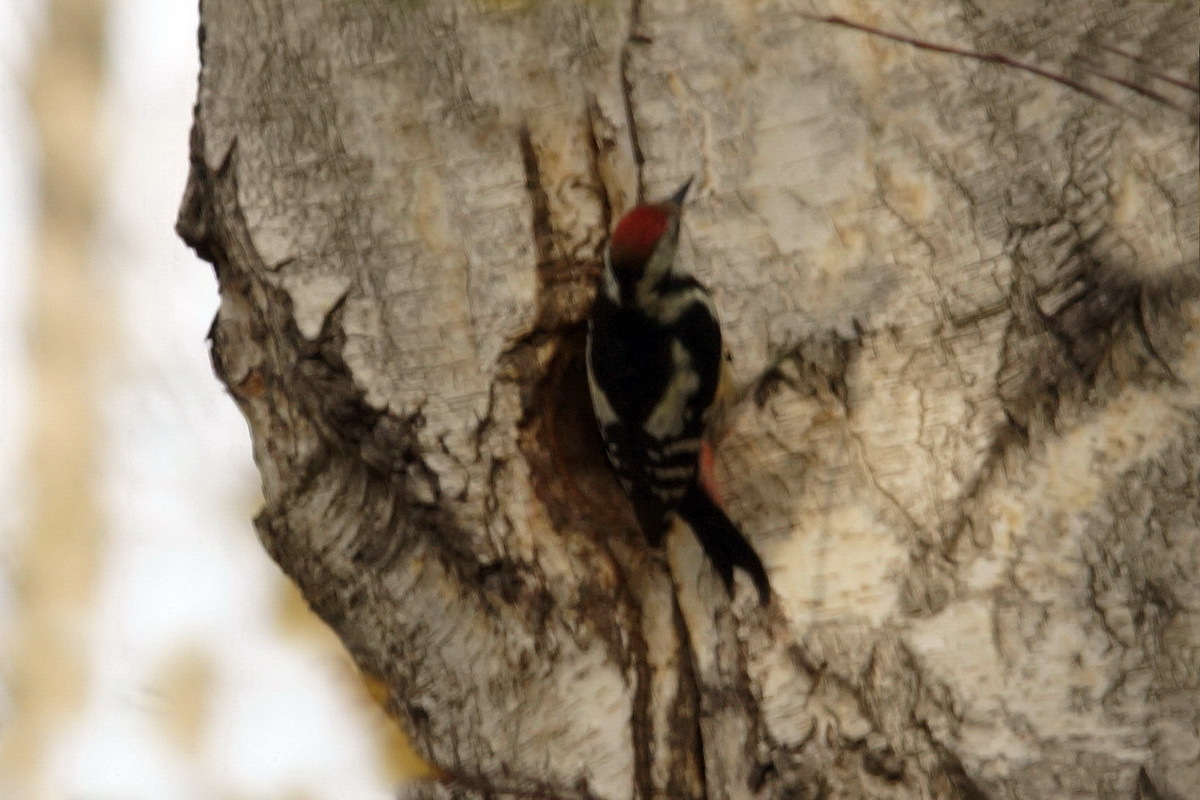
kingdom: Animalia
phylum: Chordata
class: Aves
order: Piciformes
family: Picidae
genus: Dendrocoptes
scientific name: Dendrocoptes medius
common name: Middle spotted woodpecker
